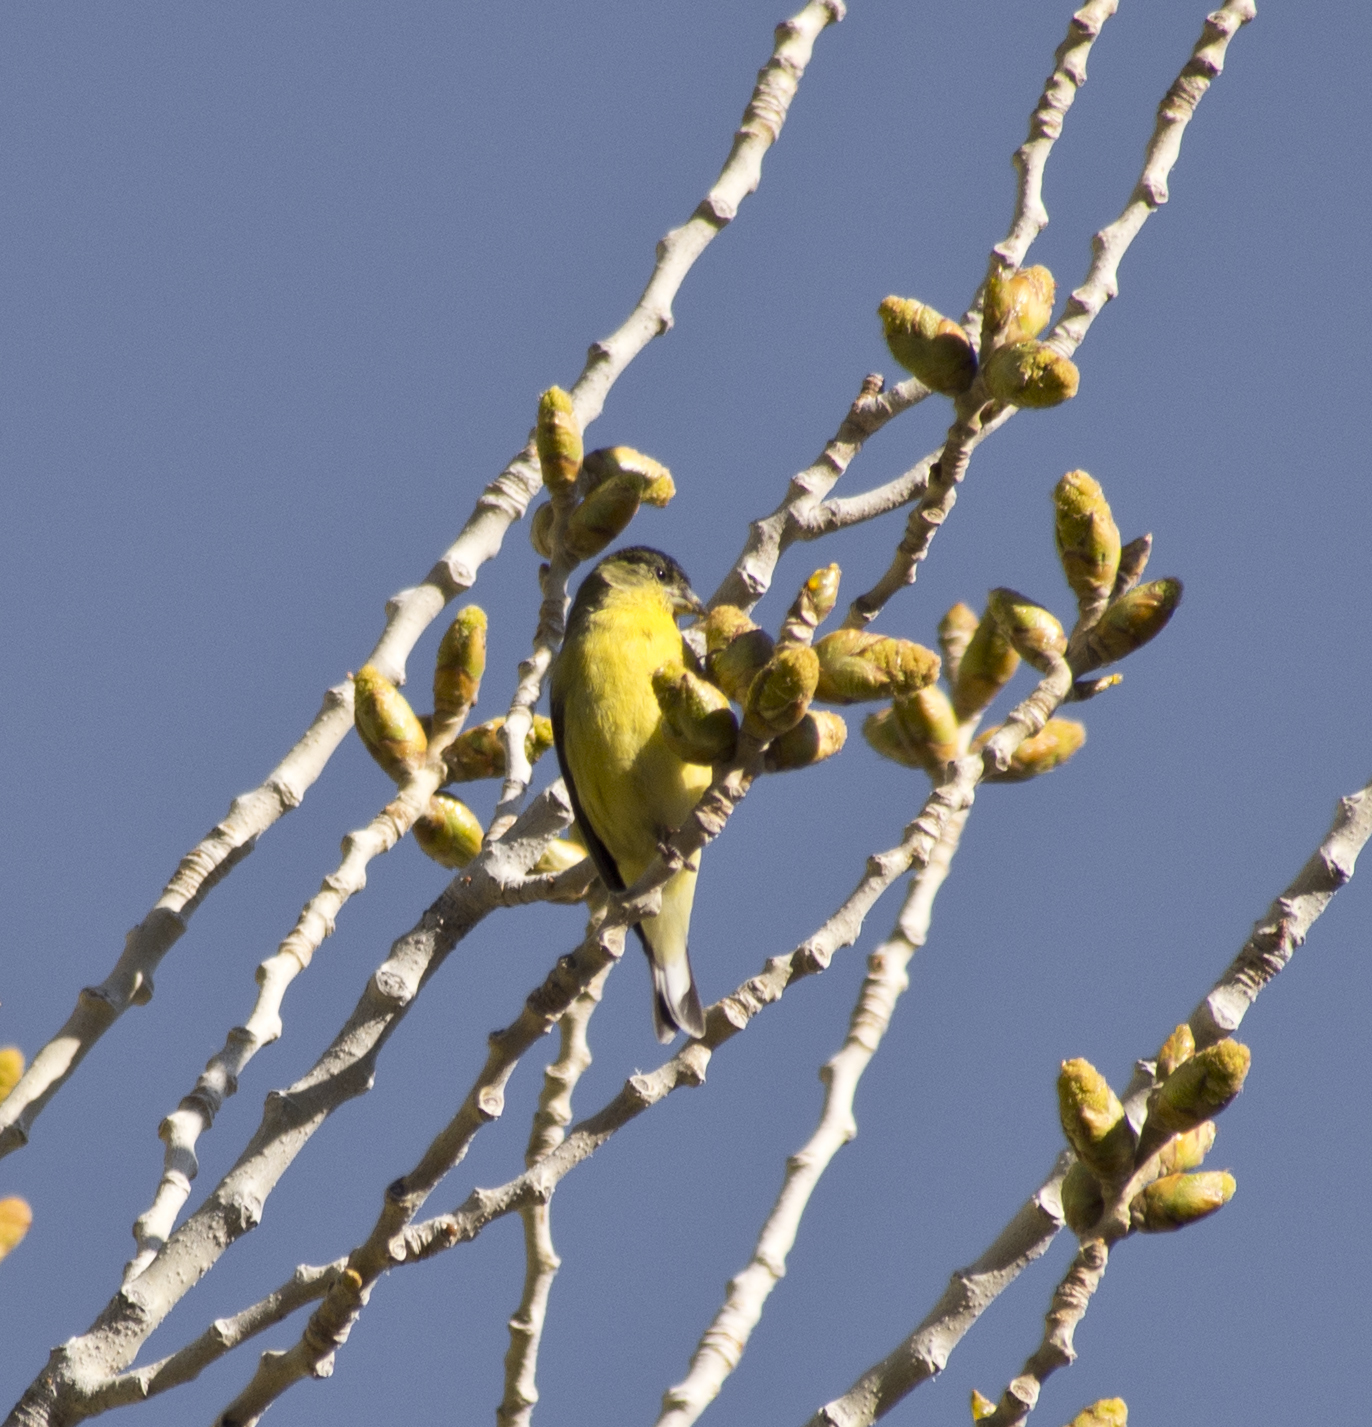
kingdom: Animalia
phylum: Chordata
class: Aves
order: Passeriformes
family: Fringillidae
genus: Spinus
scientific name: Spinus psaltria
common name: Lesser goldfinch
